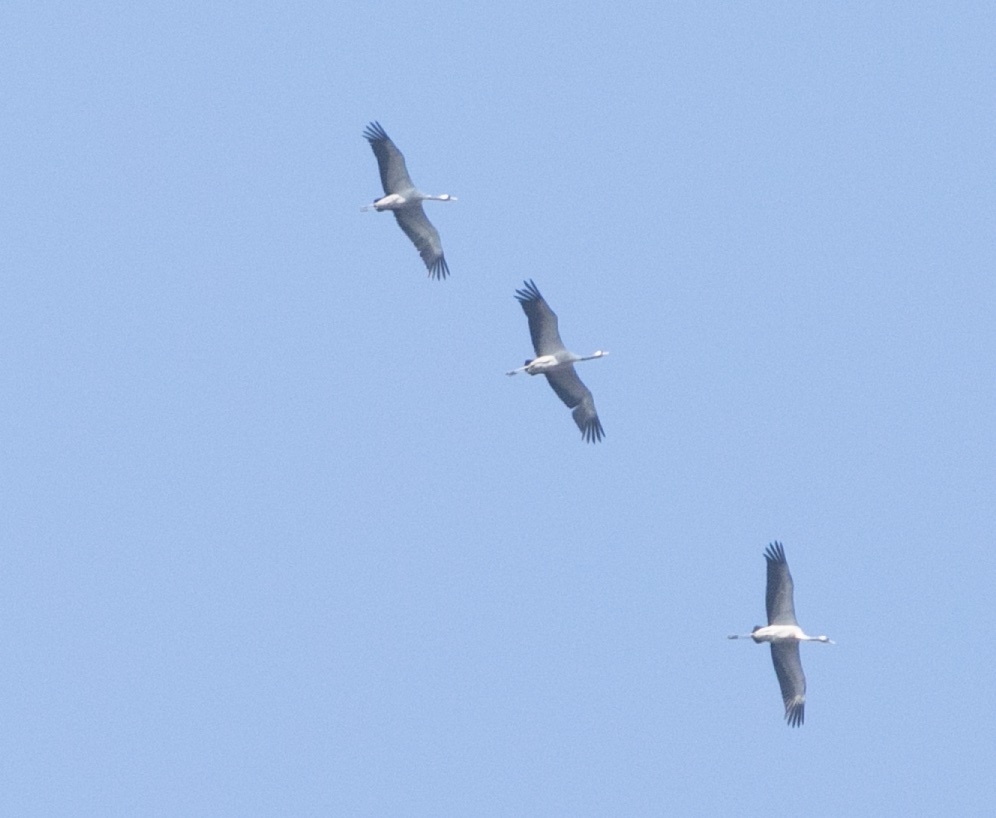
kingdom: Animalia
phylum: Chordata
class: Aves
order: Gruiformes
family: Gruidae
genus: Grus
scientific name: Grus grus
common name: Common crane
